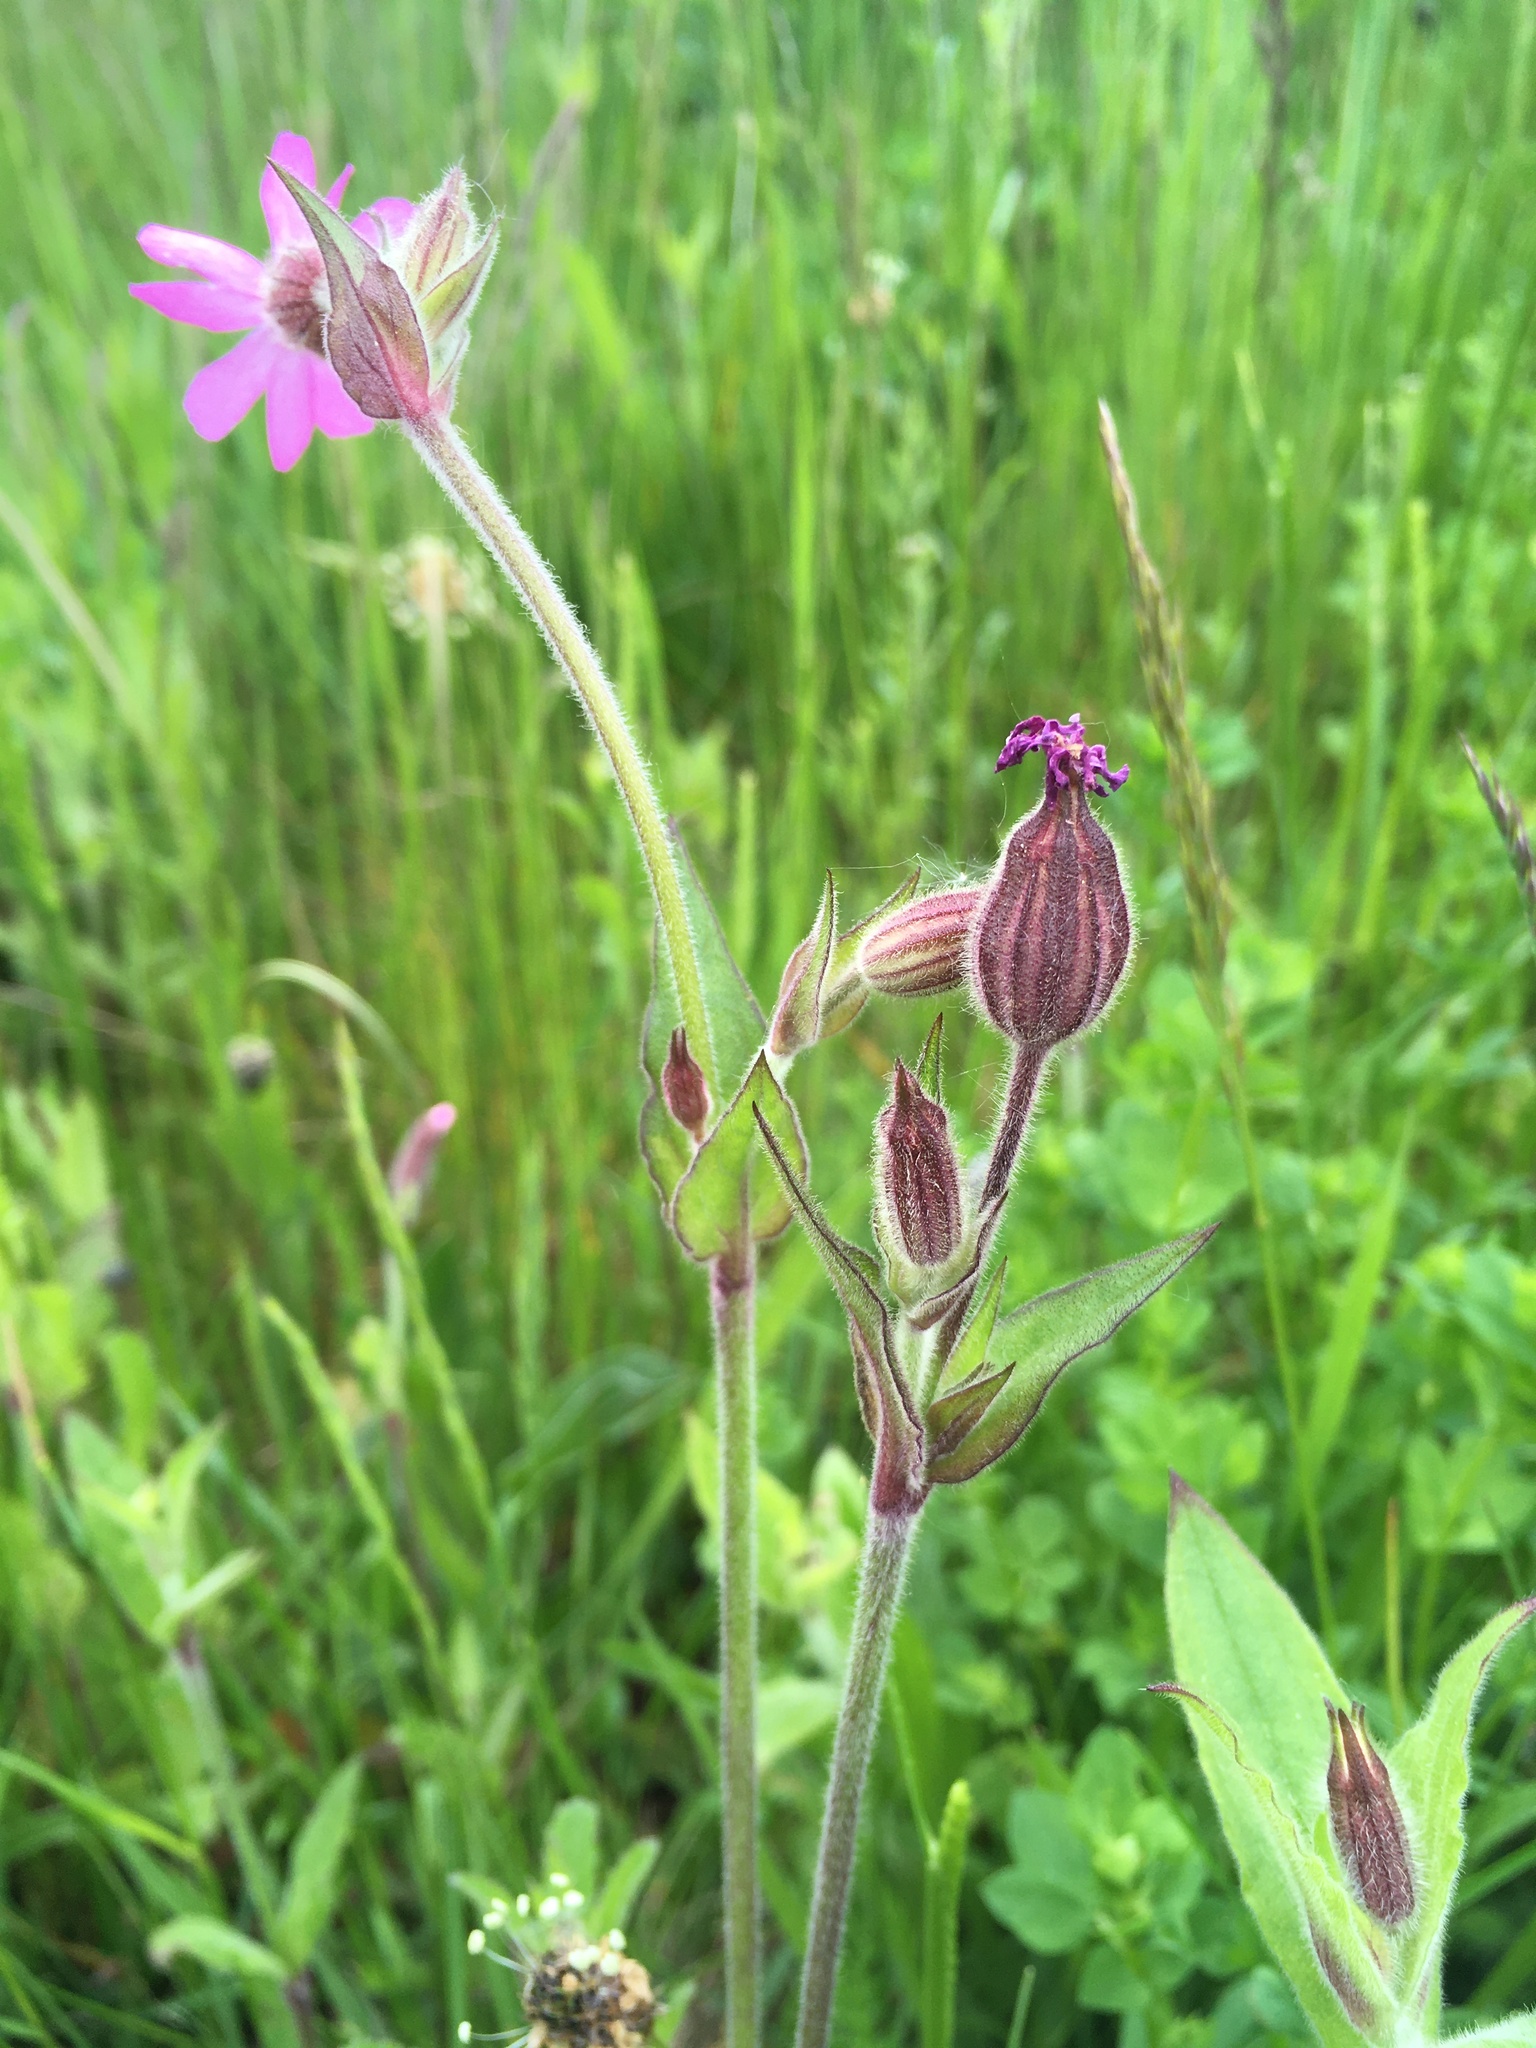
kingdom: Plantae
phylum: Tracheophyta
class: Magnoliopsida
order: Caryophyllales
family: Caryophyllaceae
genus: Silene
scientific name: Silene dioica
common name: Red campion
